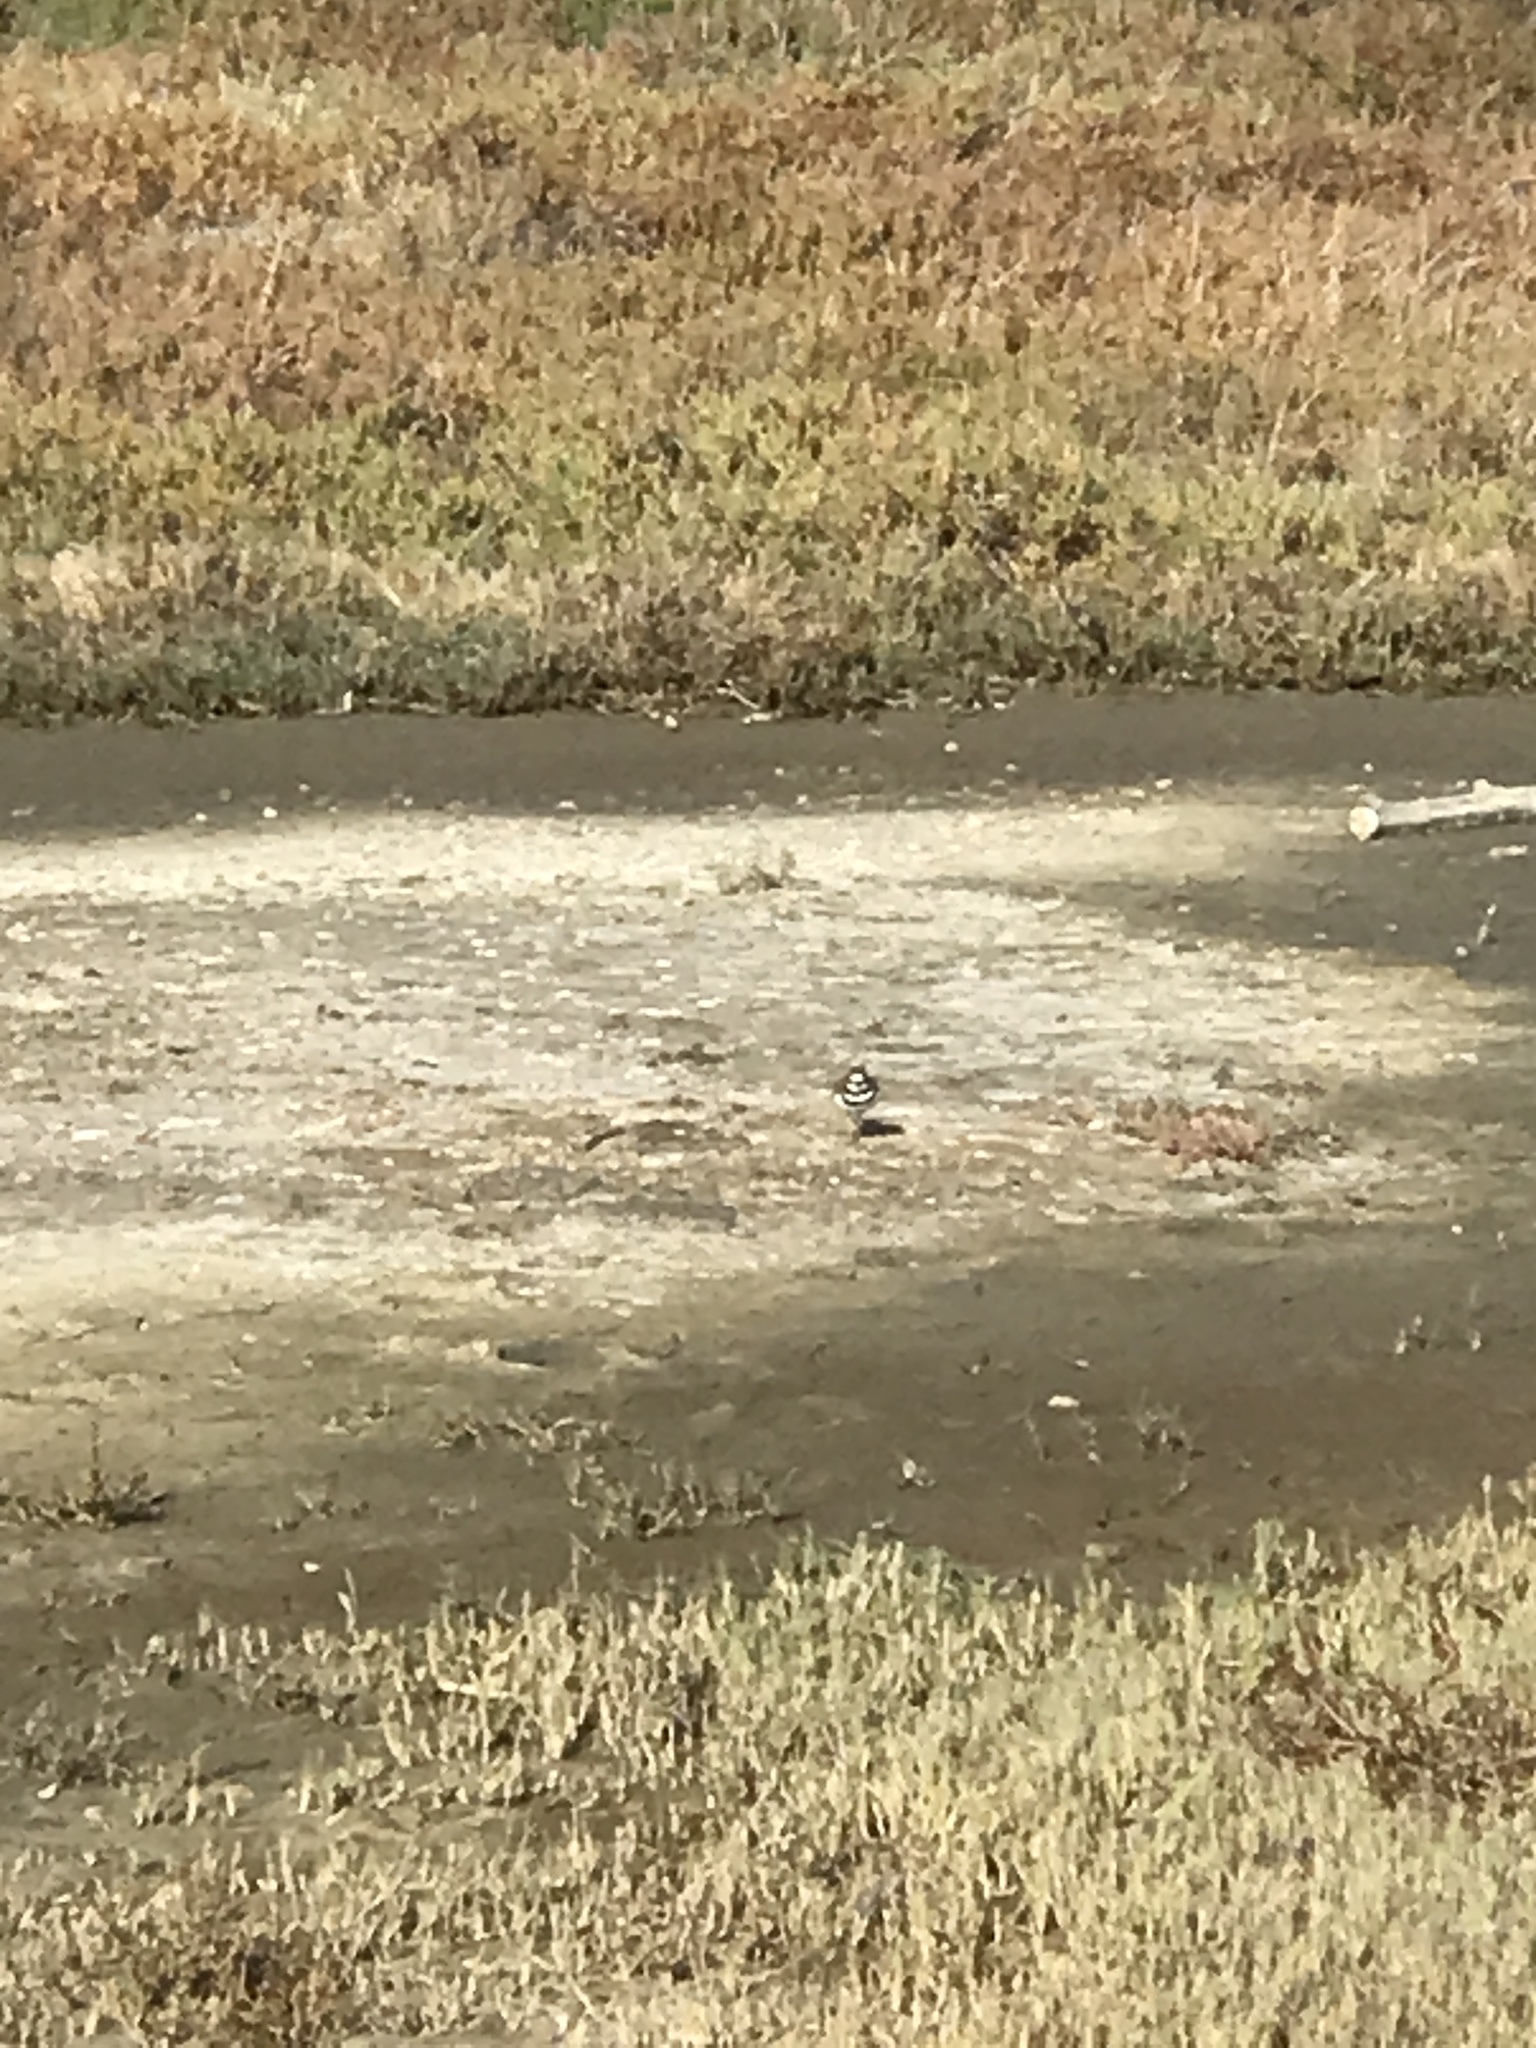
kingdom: Animalia
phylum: Chordata
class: Aves
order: Charadriiformes
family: Charadriidae
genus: Charadrius
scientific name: Charadrius vociferus
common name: Killdeer
